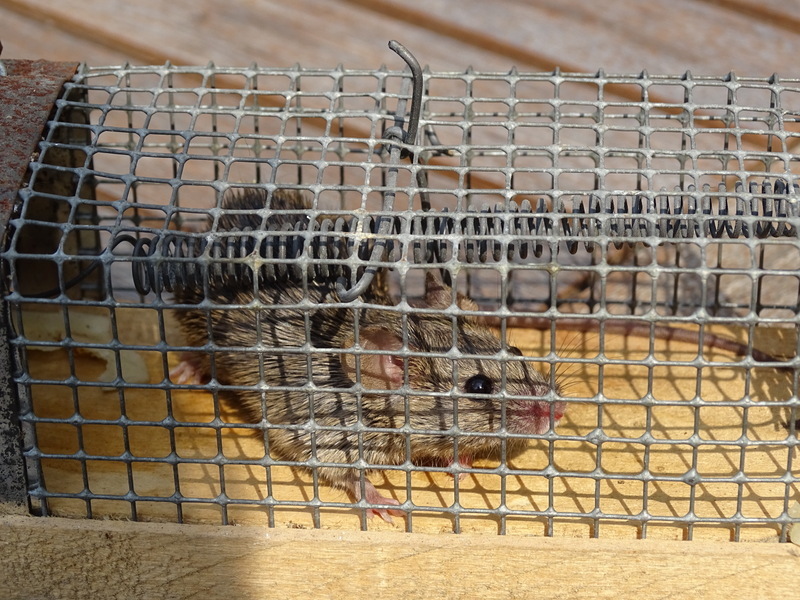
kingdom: Animalia
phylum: Chordata
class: Mammalia
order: Rodentia
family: Muridae
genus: Mus
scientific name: Mus musculus
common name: House mouse
